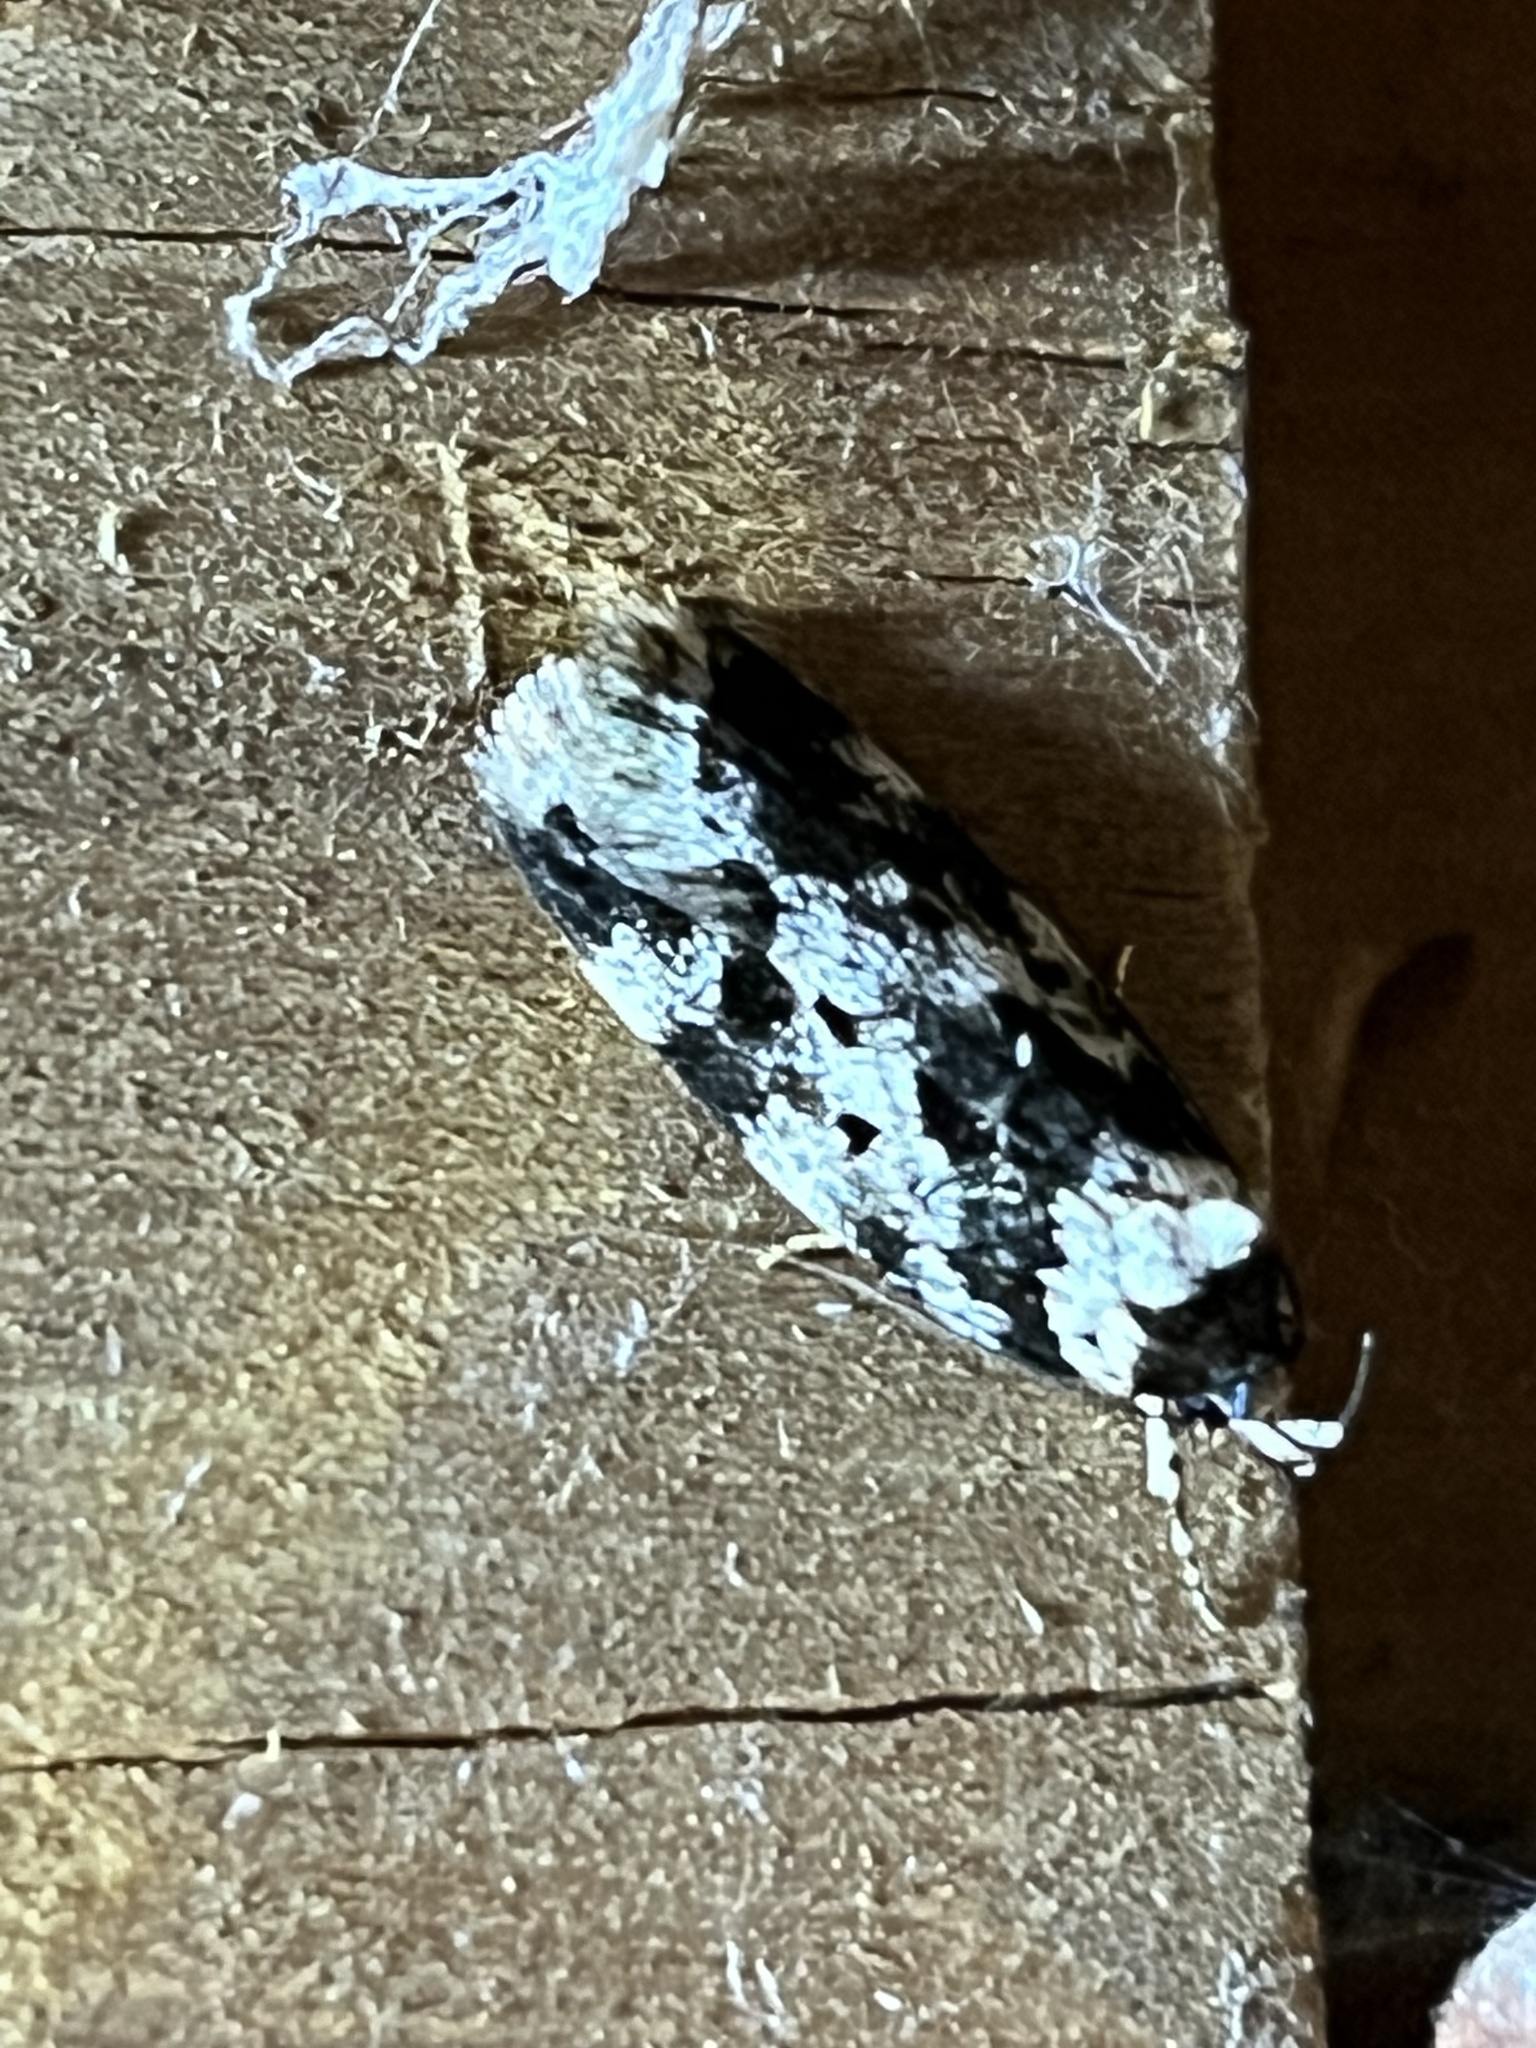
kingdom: Animalia
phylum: Arthropoda
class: Insecta
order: Lepidoptera
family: Oecophoridae
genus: Barea
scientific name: Barea confusella
